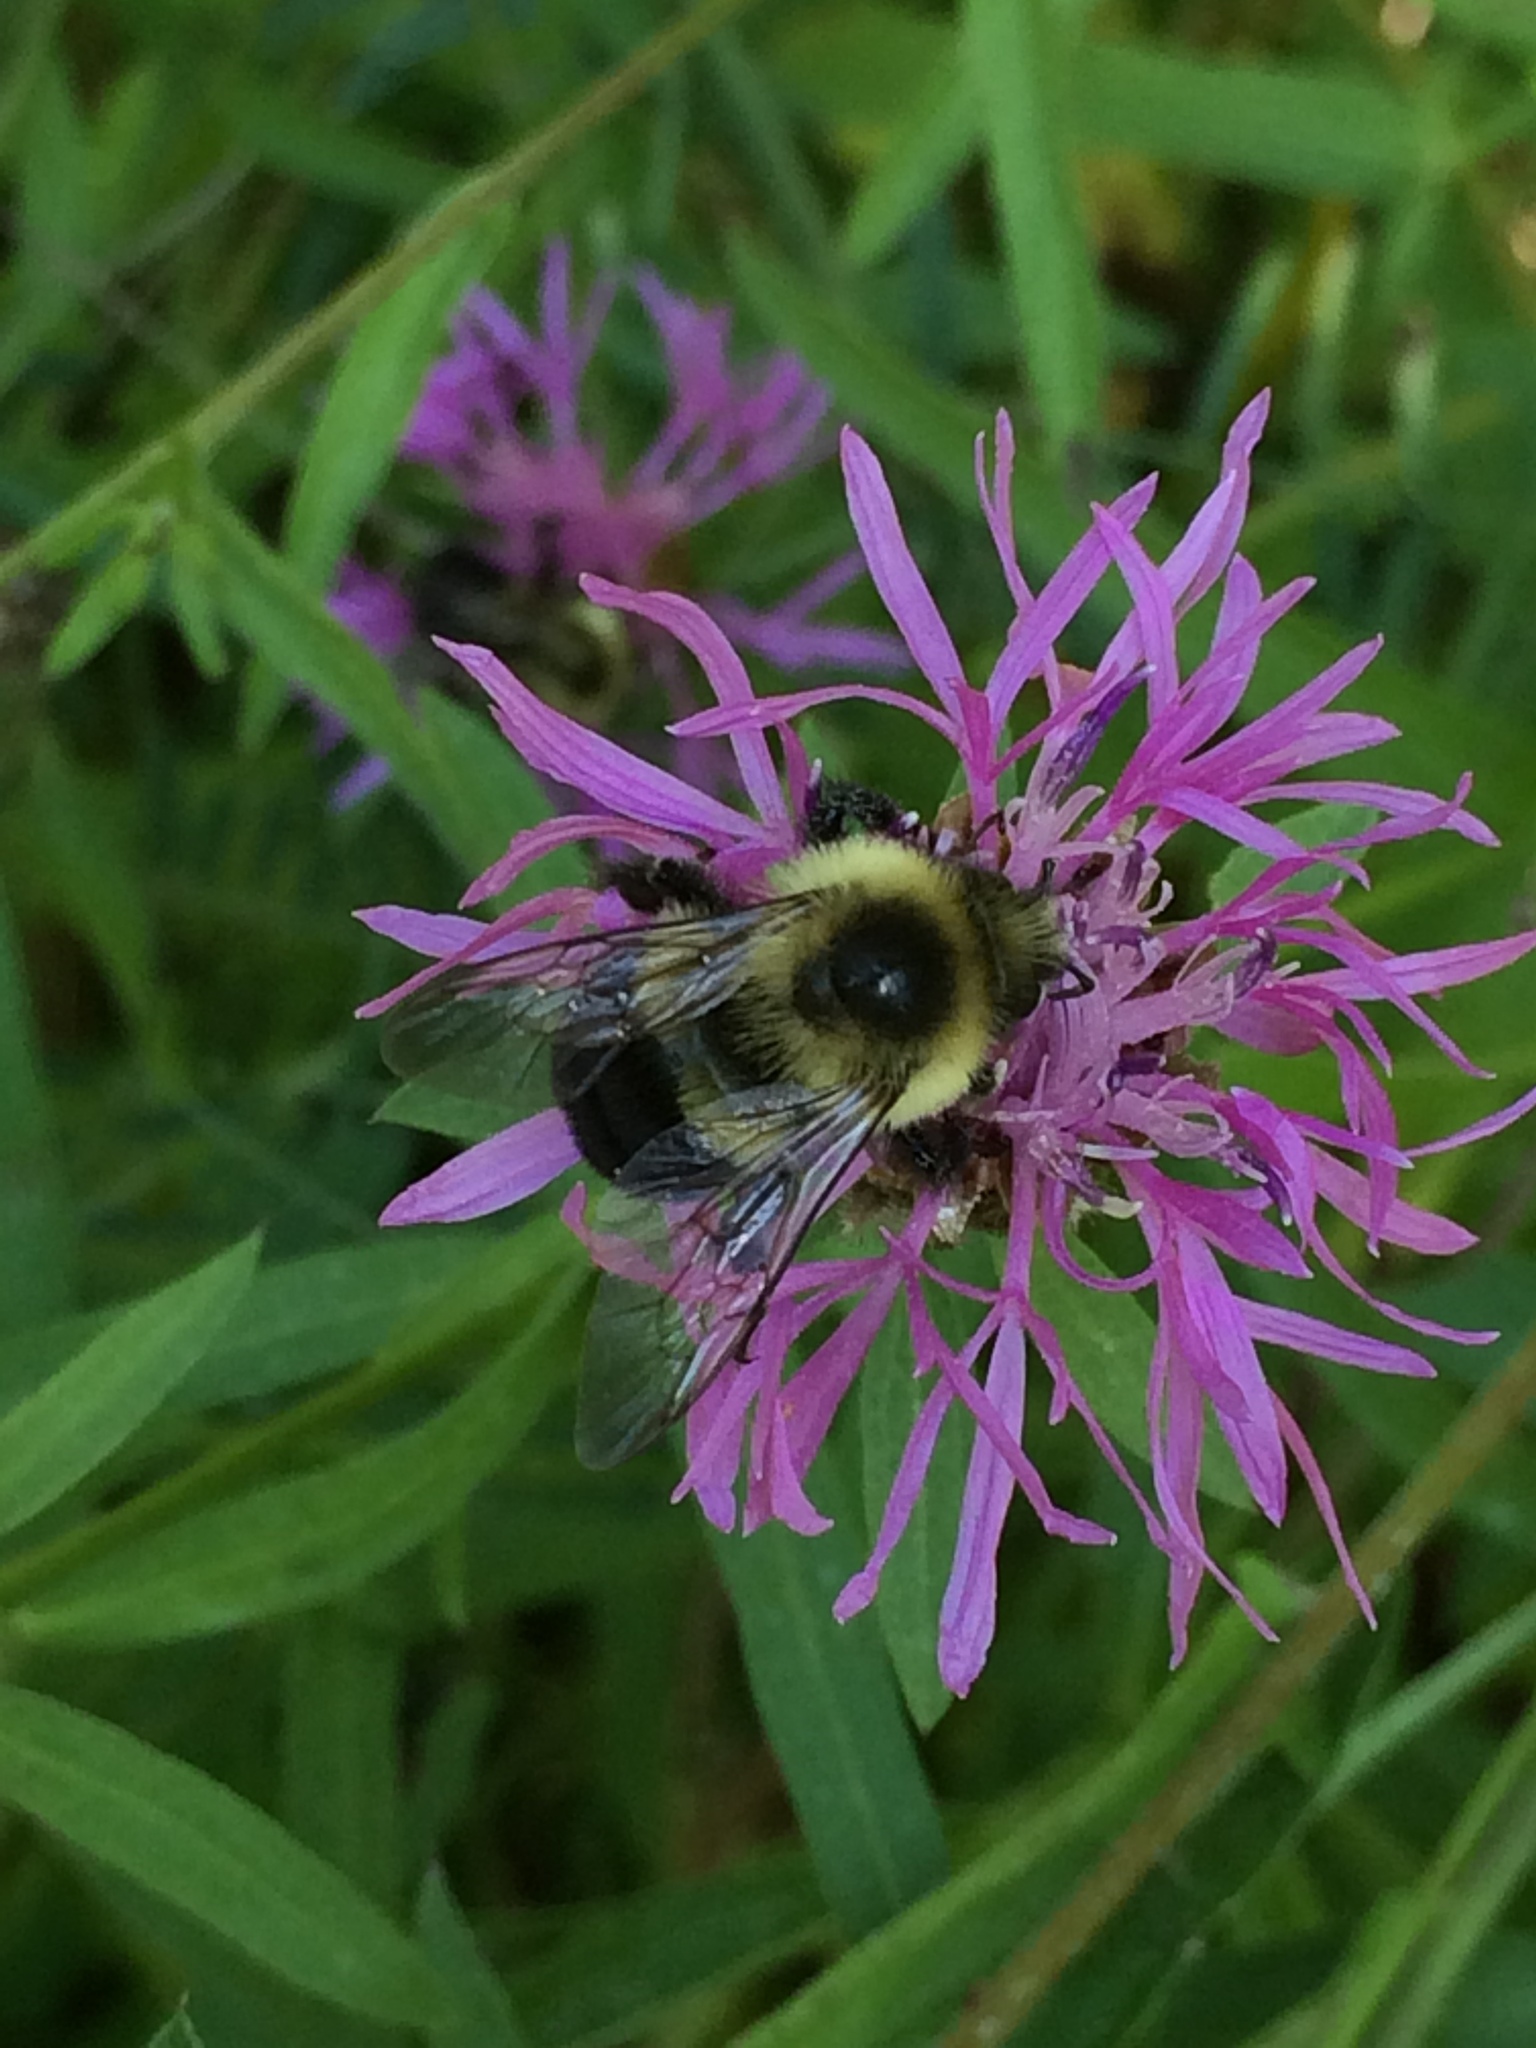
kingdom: Animalia
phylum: Arthropoda
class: Insecta
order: Hymenoptera
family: Apidae
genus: Bombus
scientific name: Bombus impatiens
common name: Common eastern bumble bee
